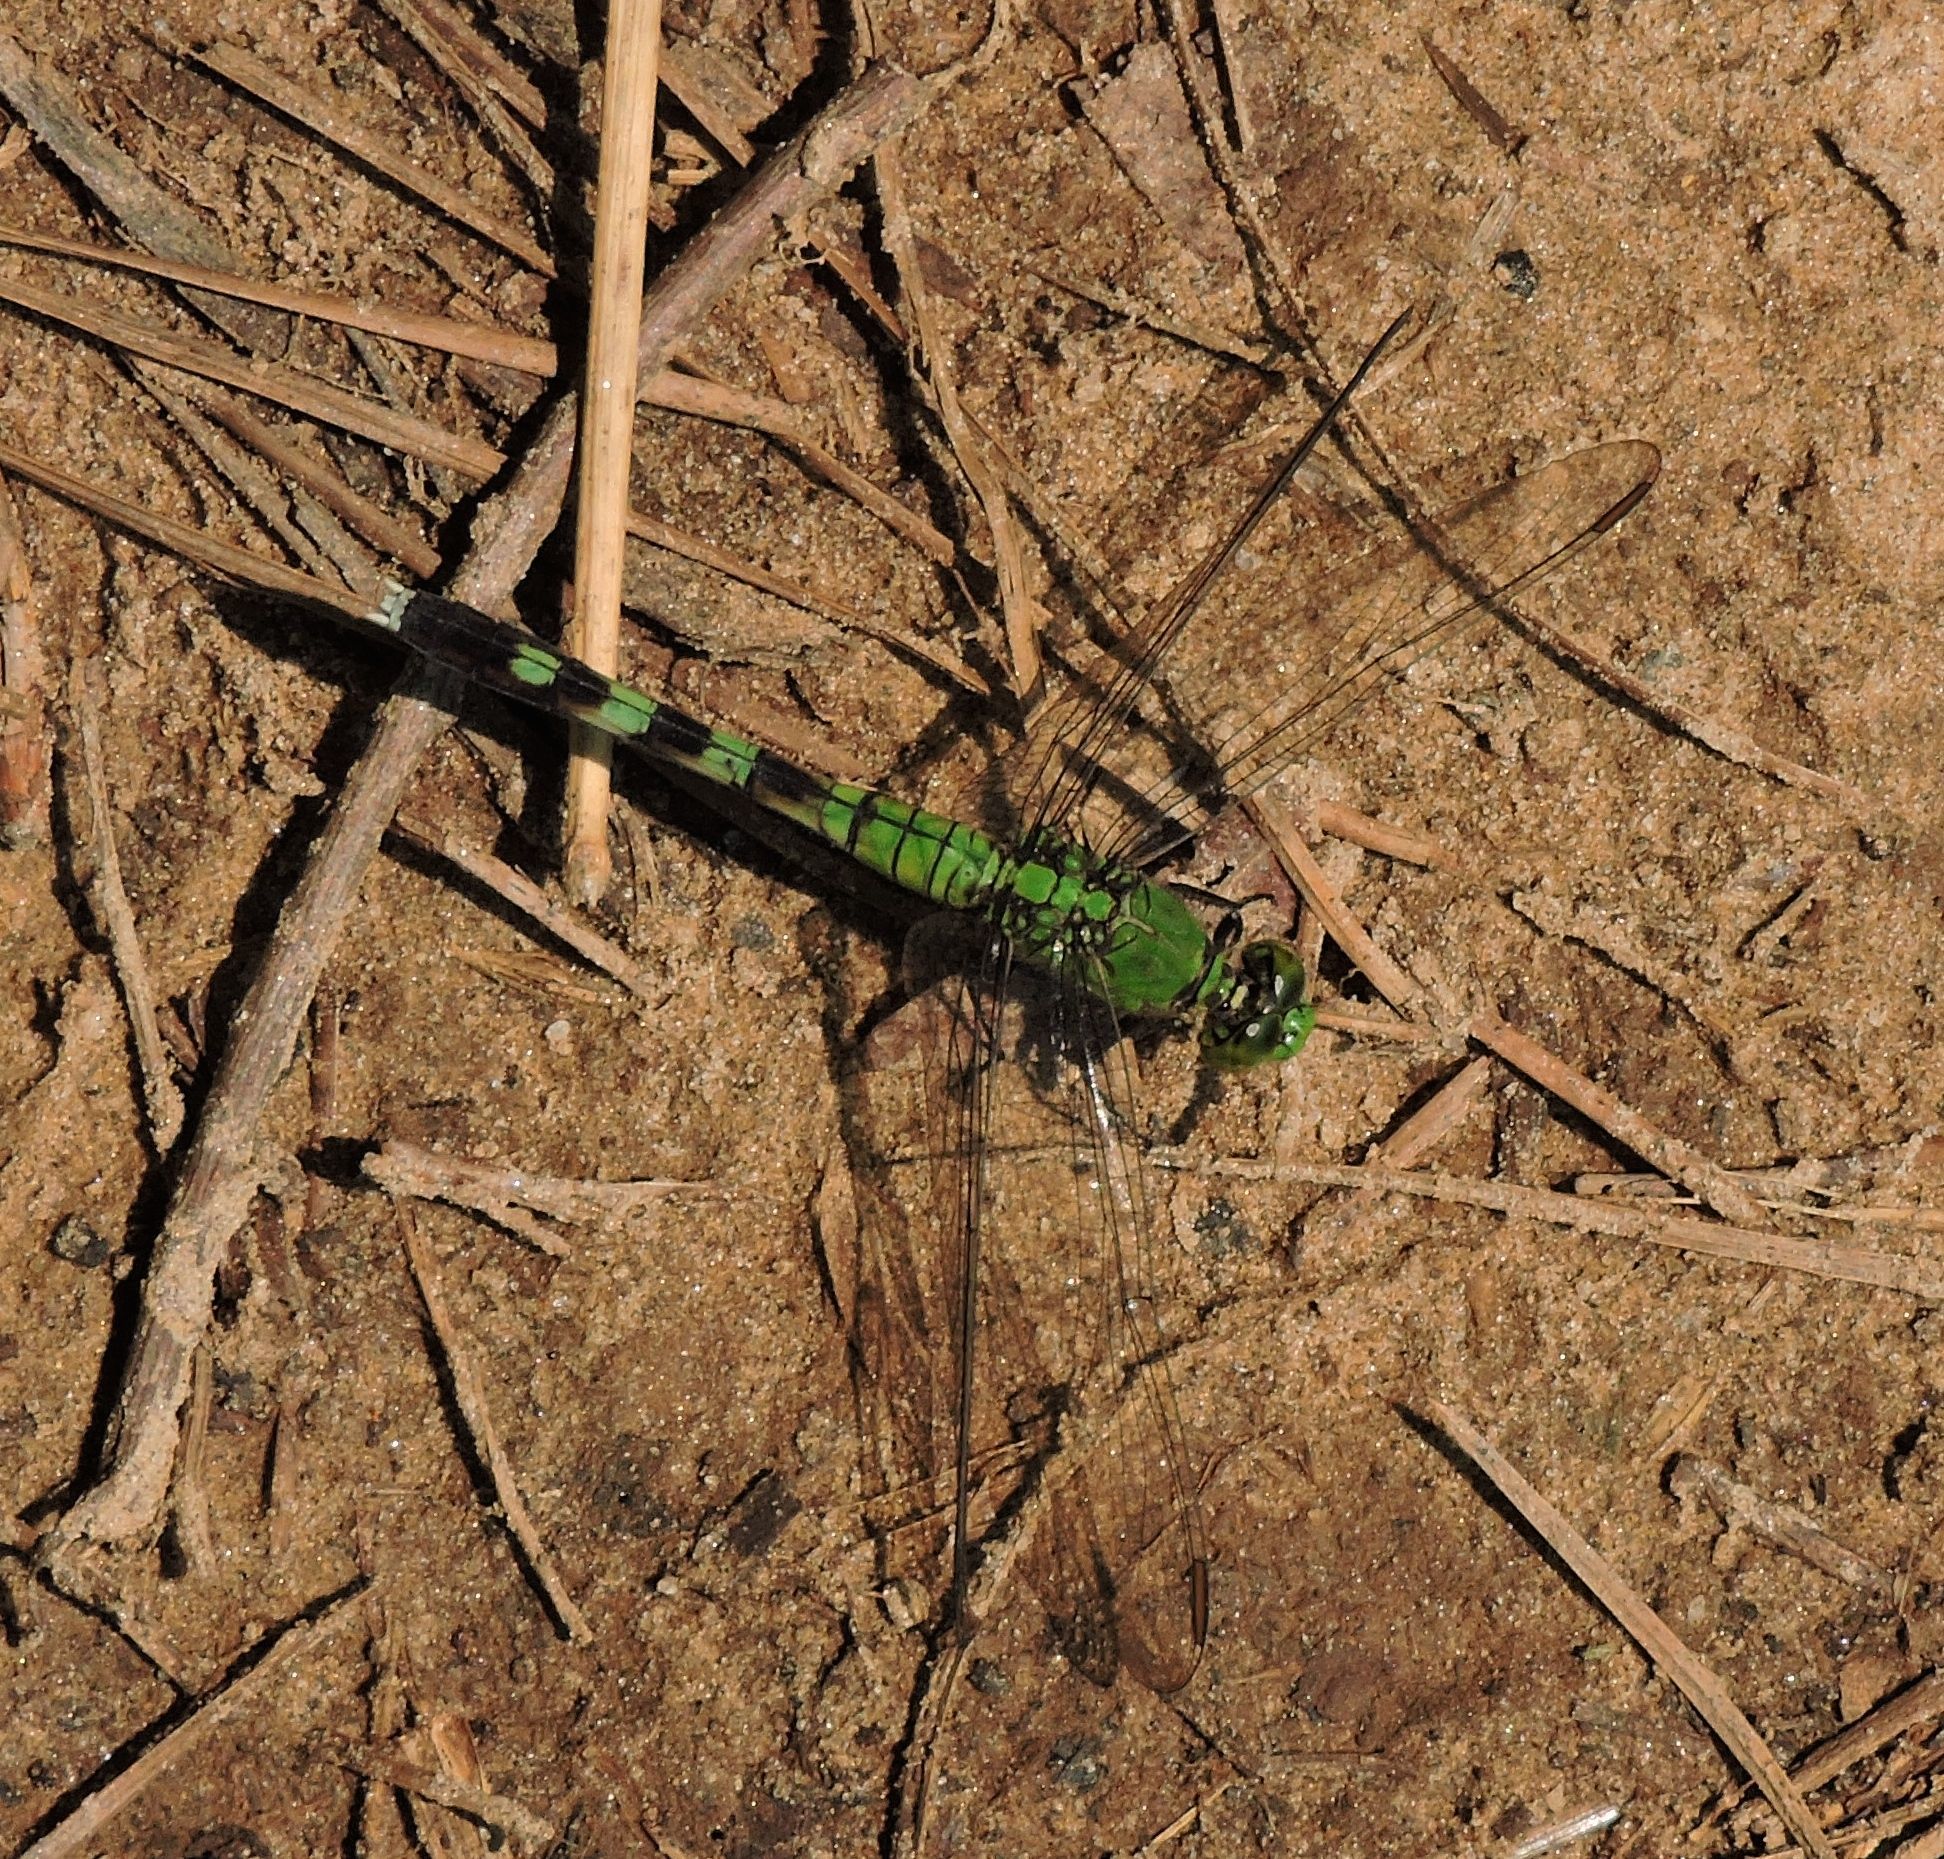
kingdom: Animalia
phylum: Arthropoda
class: Insecta
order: Odonata
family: Libellulidae
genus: Erythemis
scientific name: Erythemis simplicicollis
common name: Eastern pondhawk
